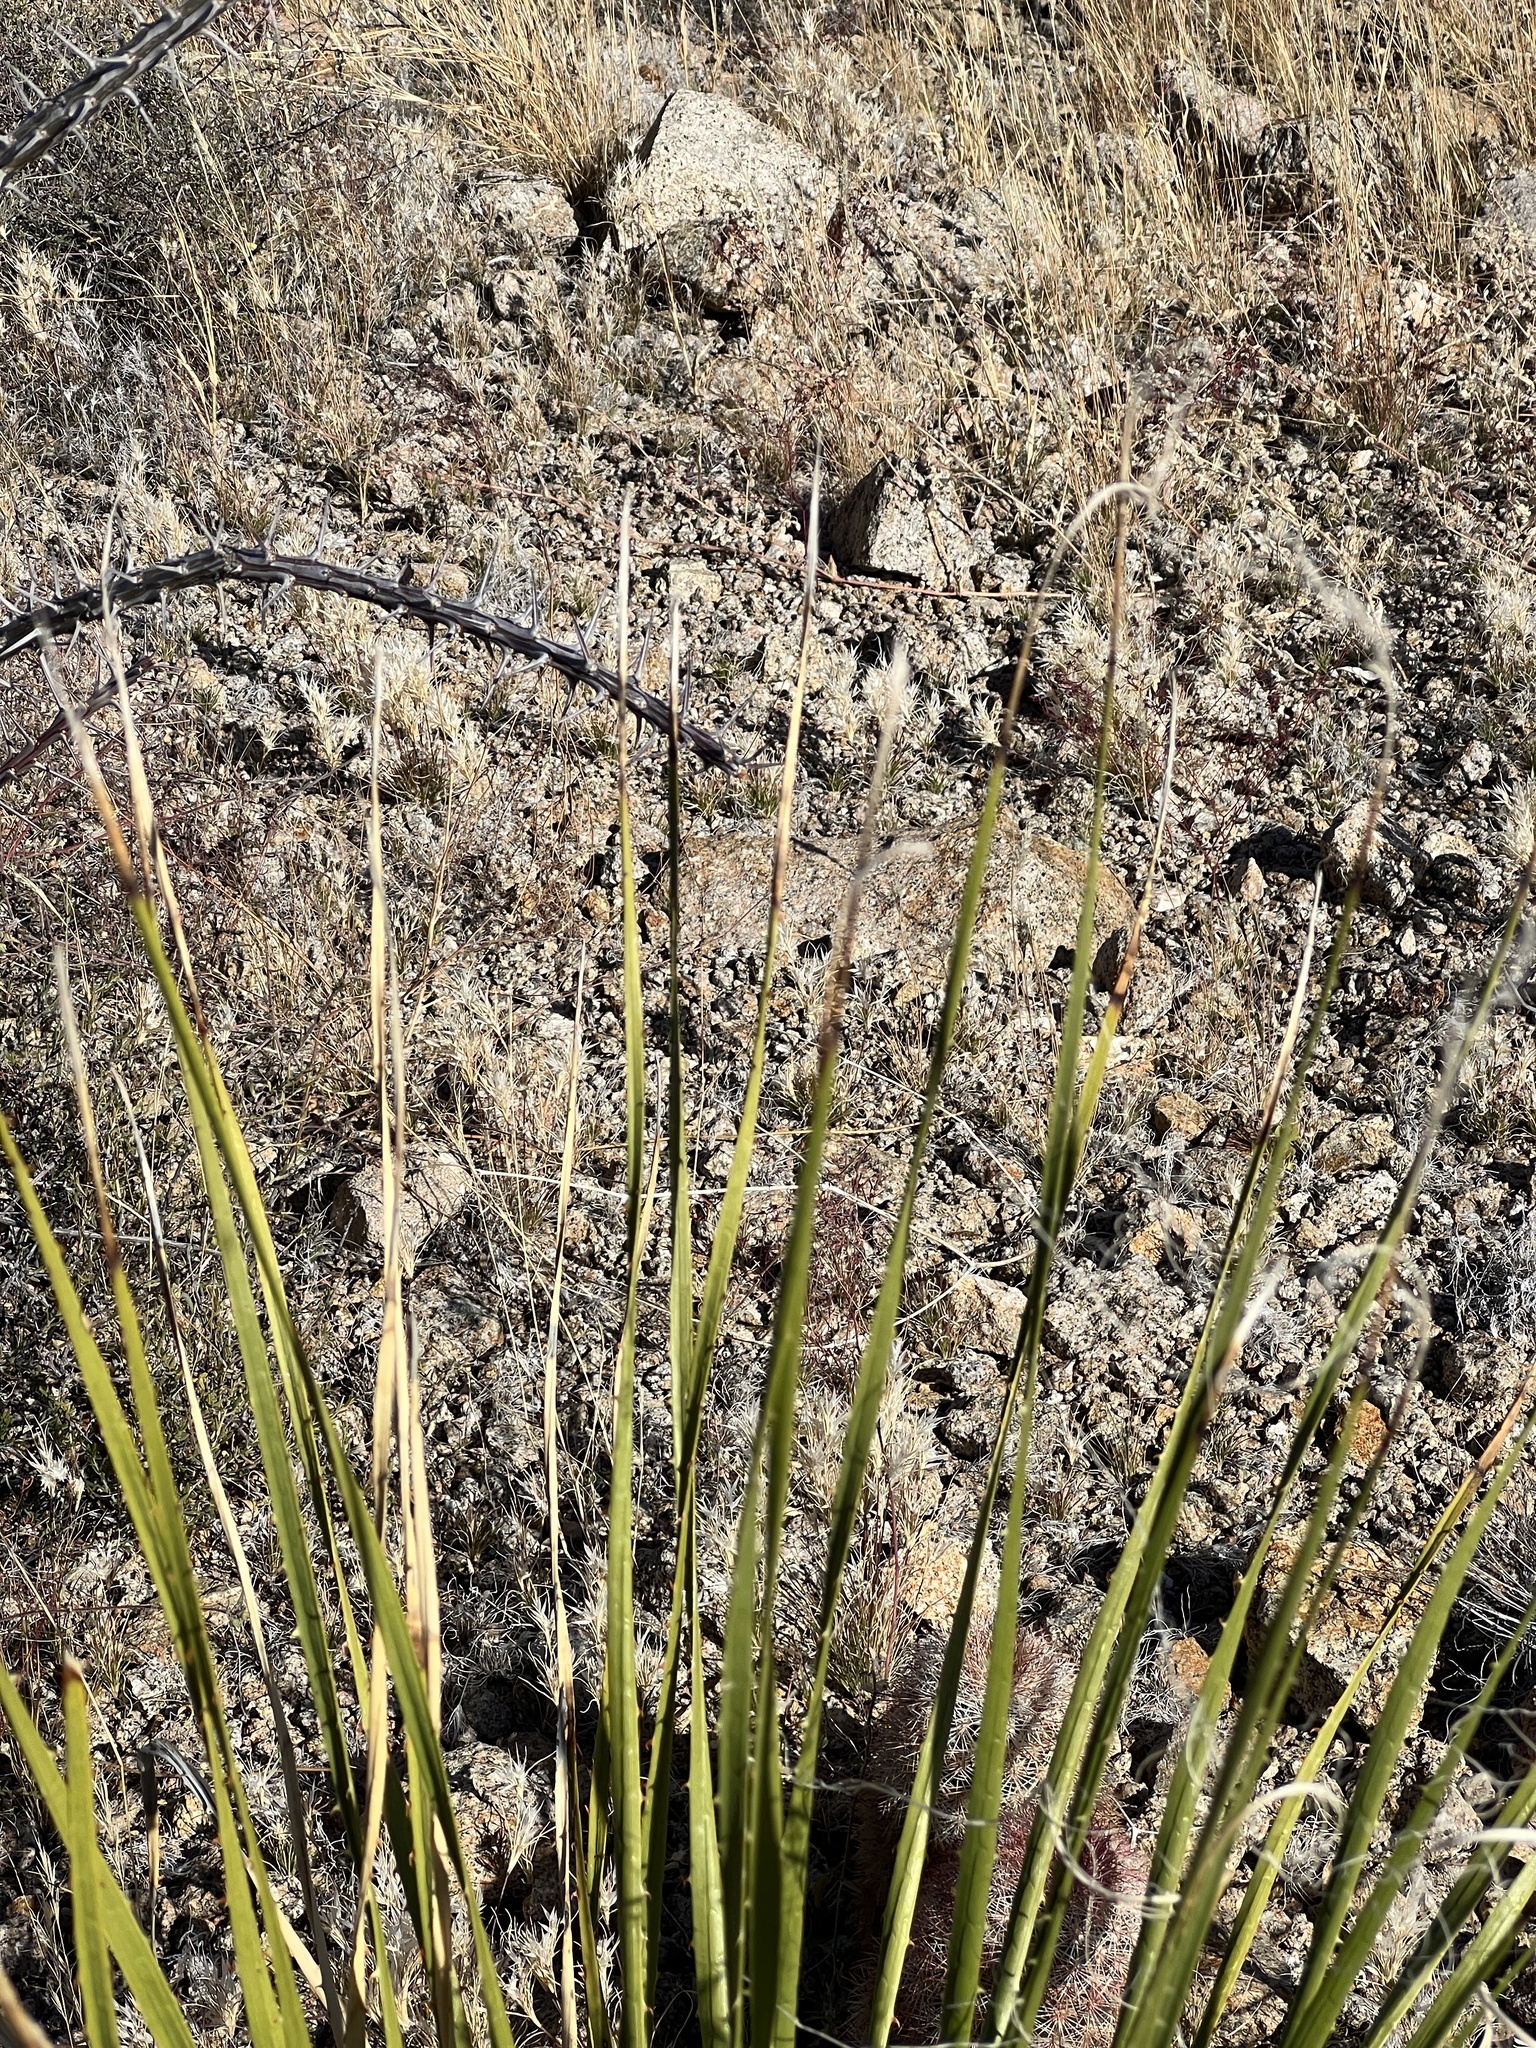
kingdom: Plantae
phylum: Tracheophyta
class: Liliopsida
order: Asparagales
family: Asparagaceae
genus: Dasylirion
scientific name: Dasylirion leiophyllum
